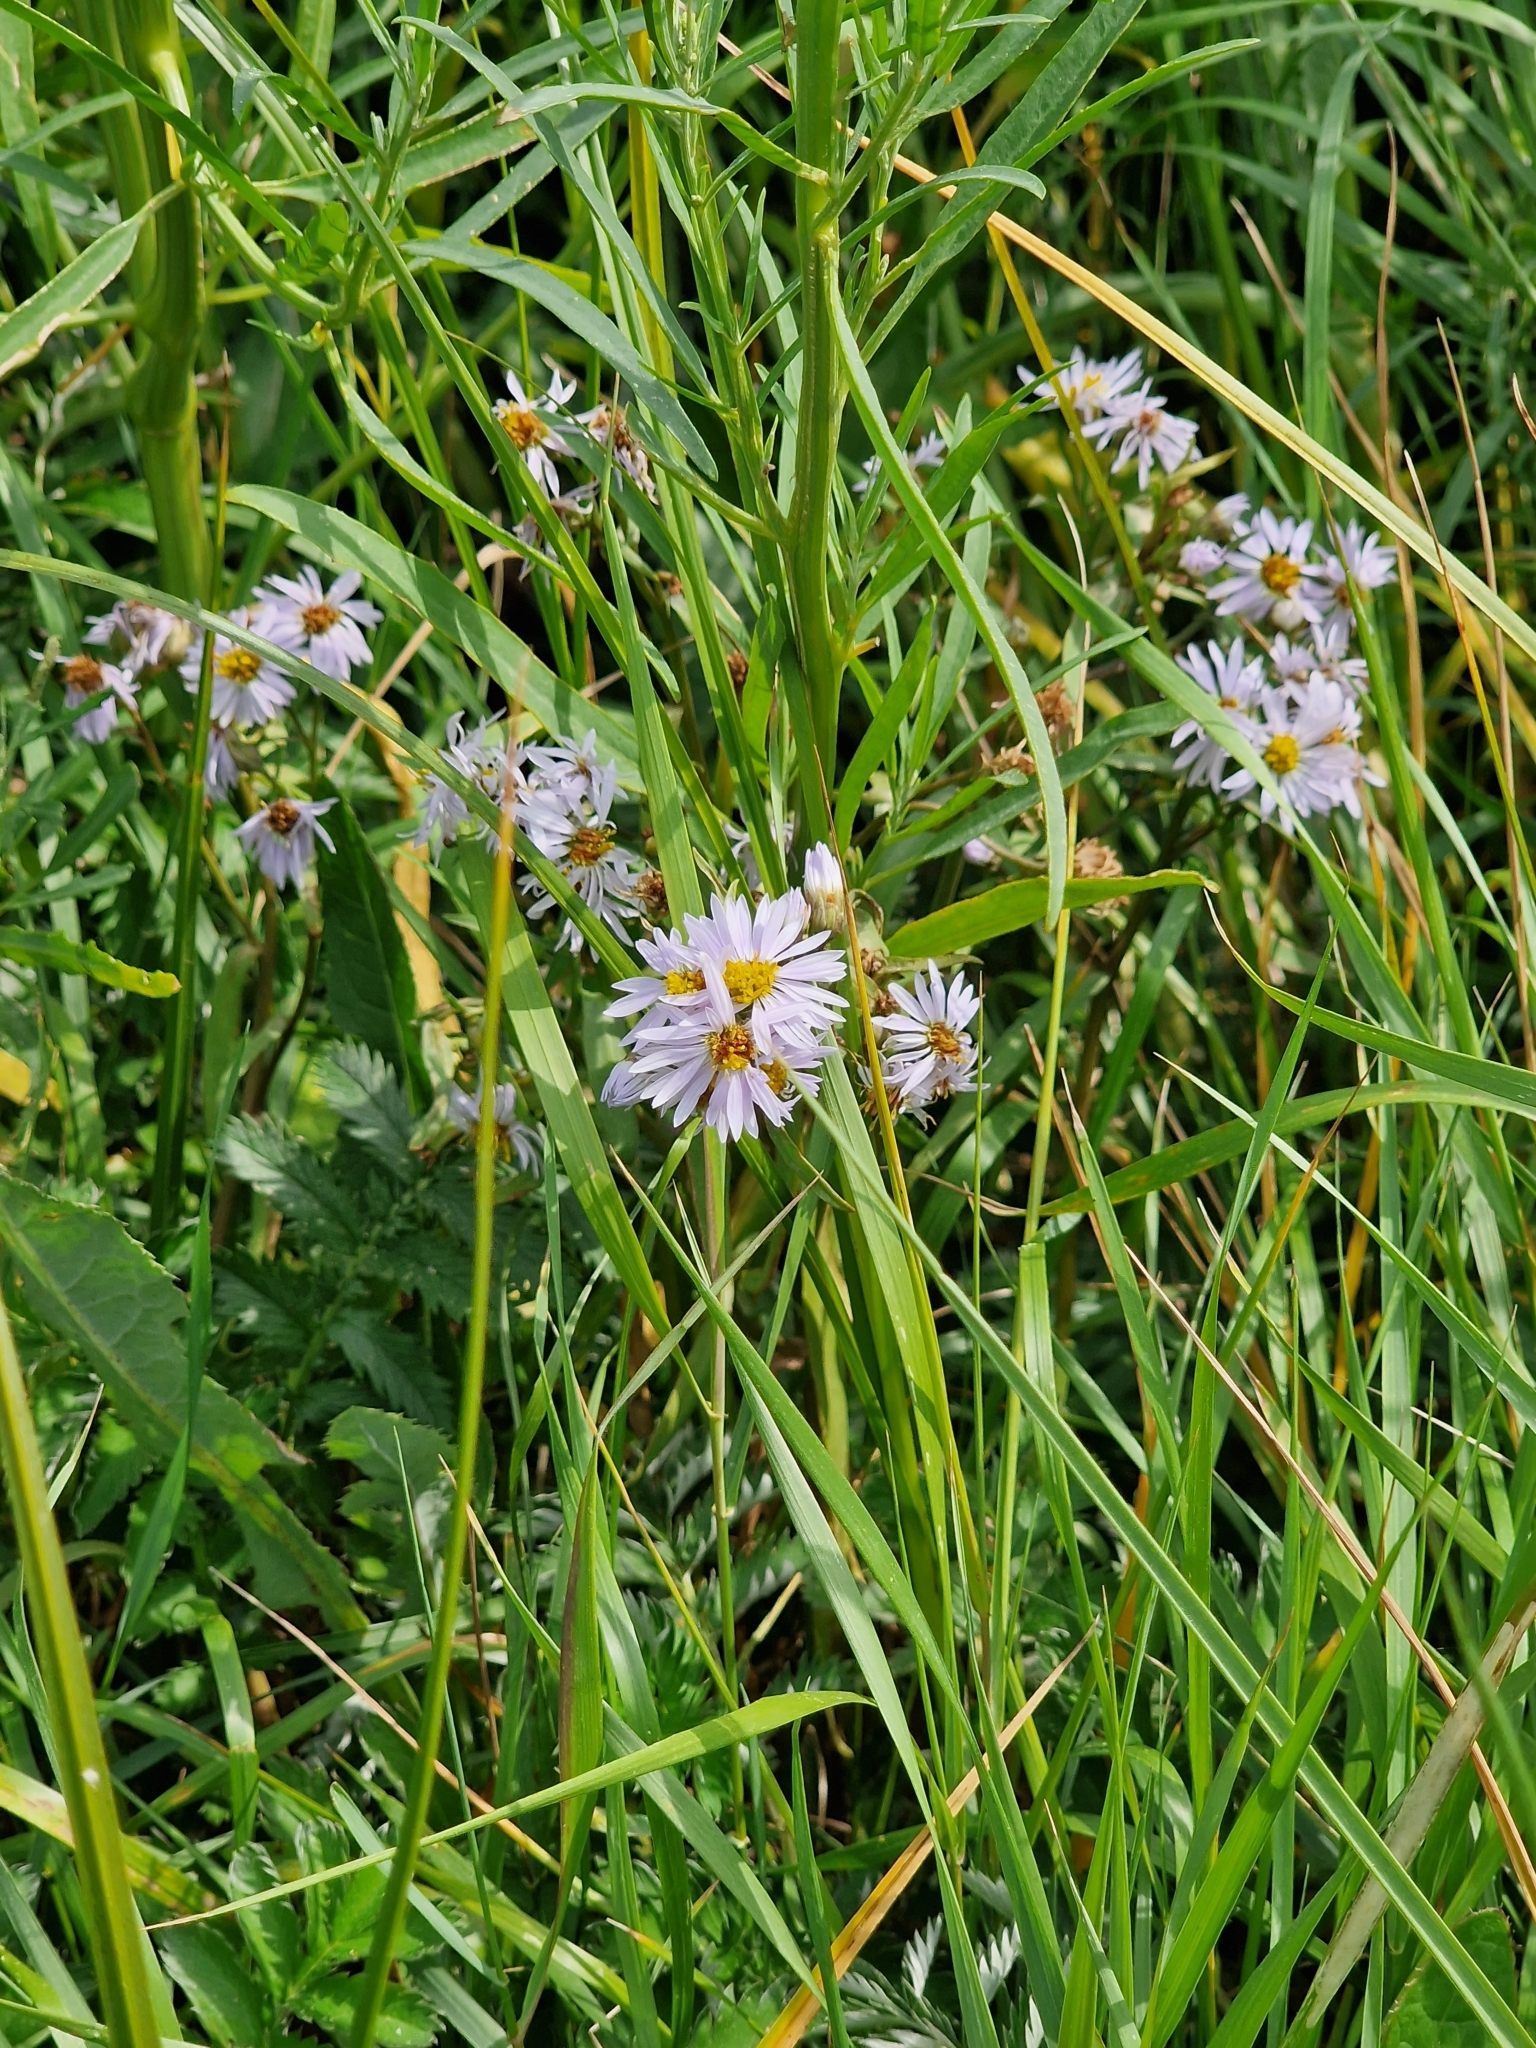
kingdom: Plantae
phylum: Tracheophyta
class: Magnoliopsida
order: Asterales
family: Asteraceae
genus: Tripolium
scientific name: Tripolium pannonicum
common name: Sea aster
